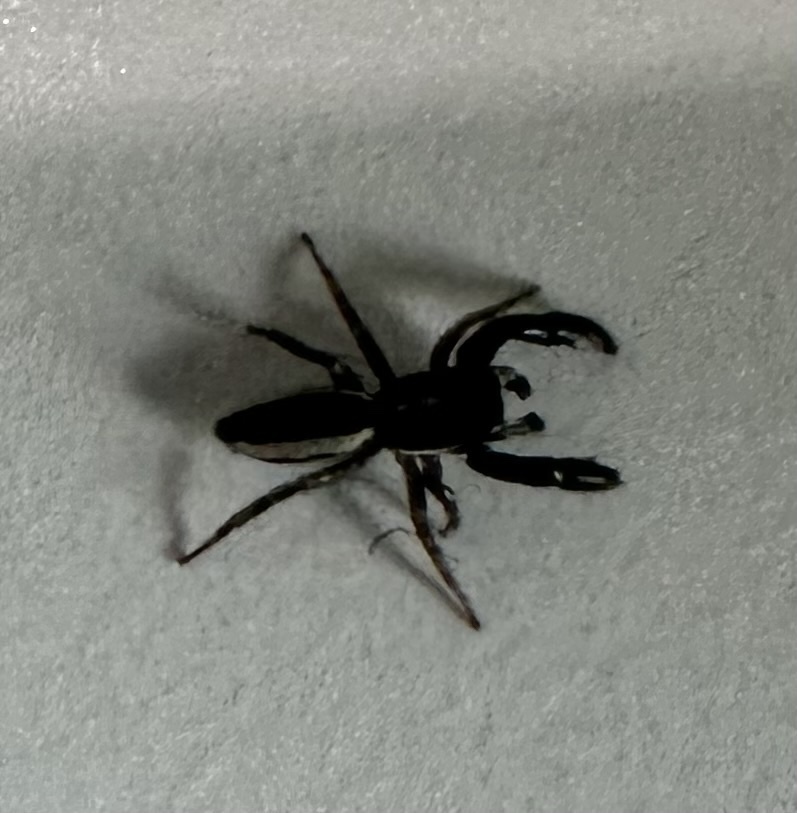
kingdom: Animalia
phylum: Arthropoda
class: Arachnida
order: Araneae
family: Salticidae
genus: Okinawicius
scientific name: Okinawicius tokarensis
